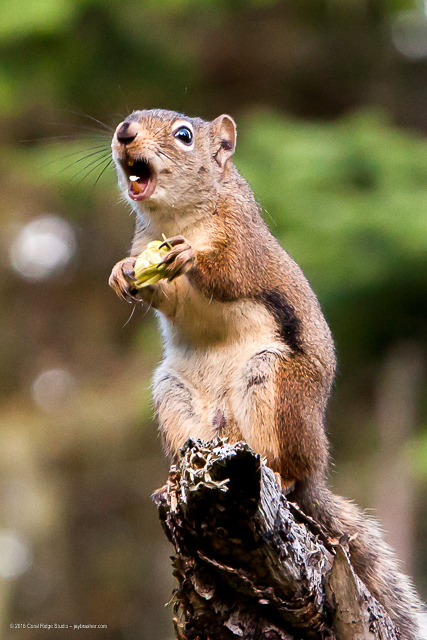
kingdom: Animalia
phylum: Chordata
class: Mammalia
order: Rodentia
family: Sciuridae
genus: Tamiasciurus
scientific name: Tamiasciurus hudsonicus
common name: Red squirrel
